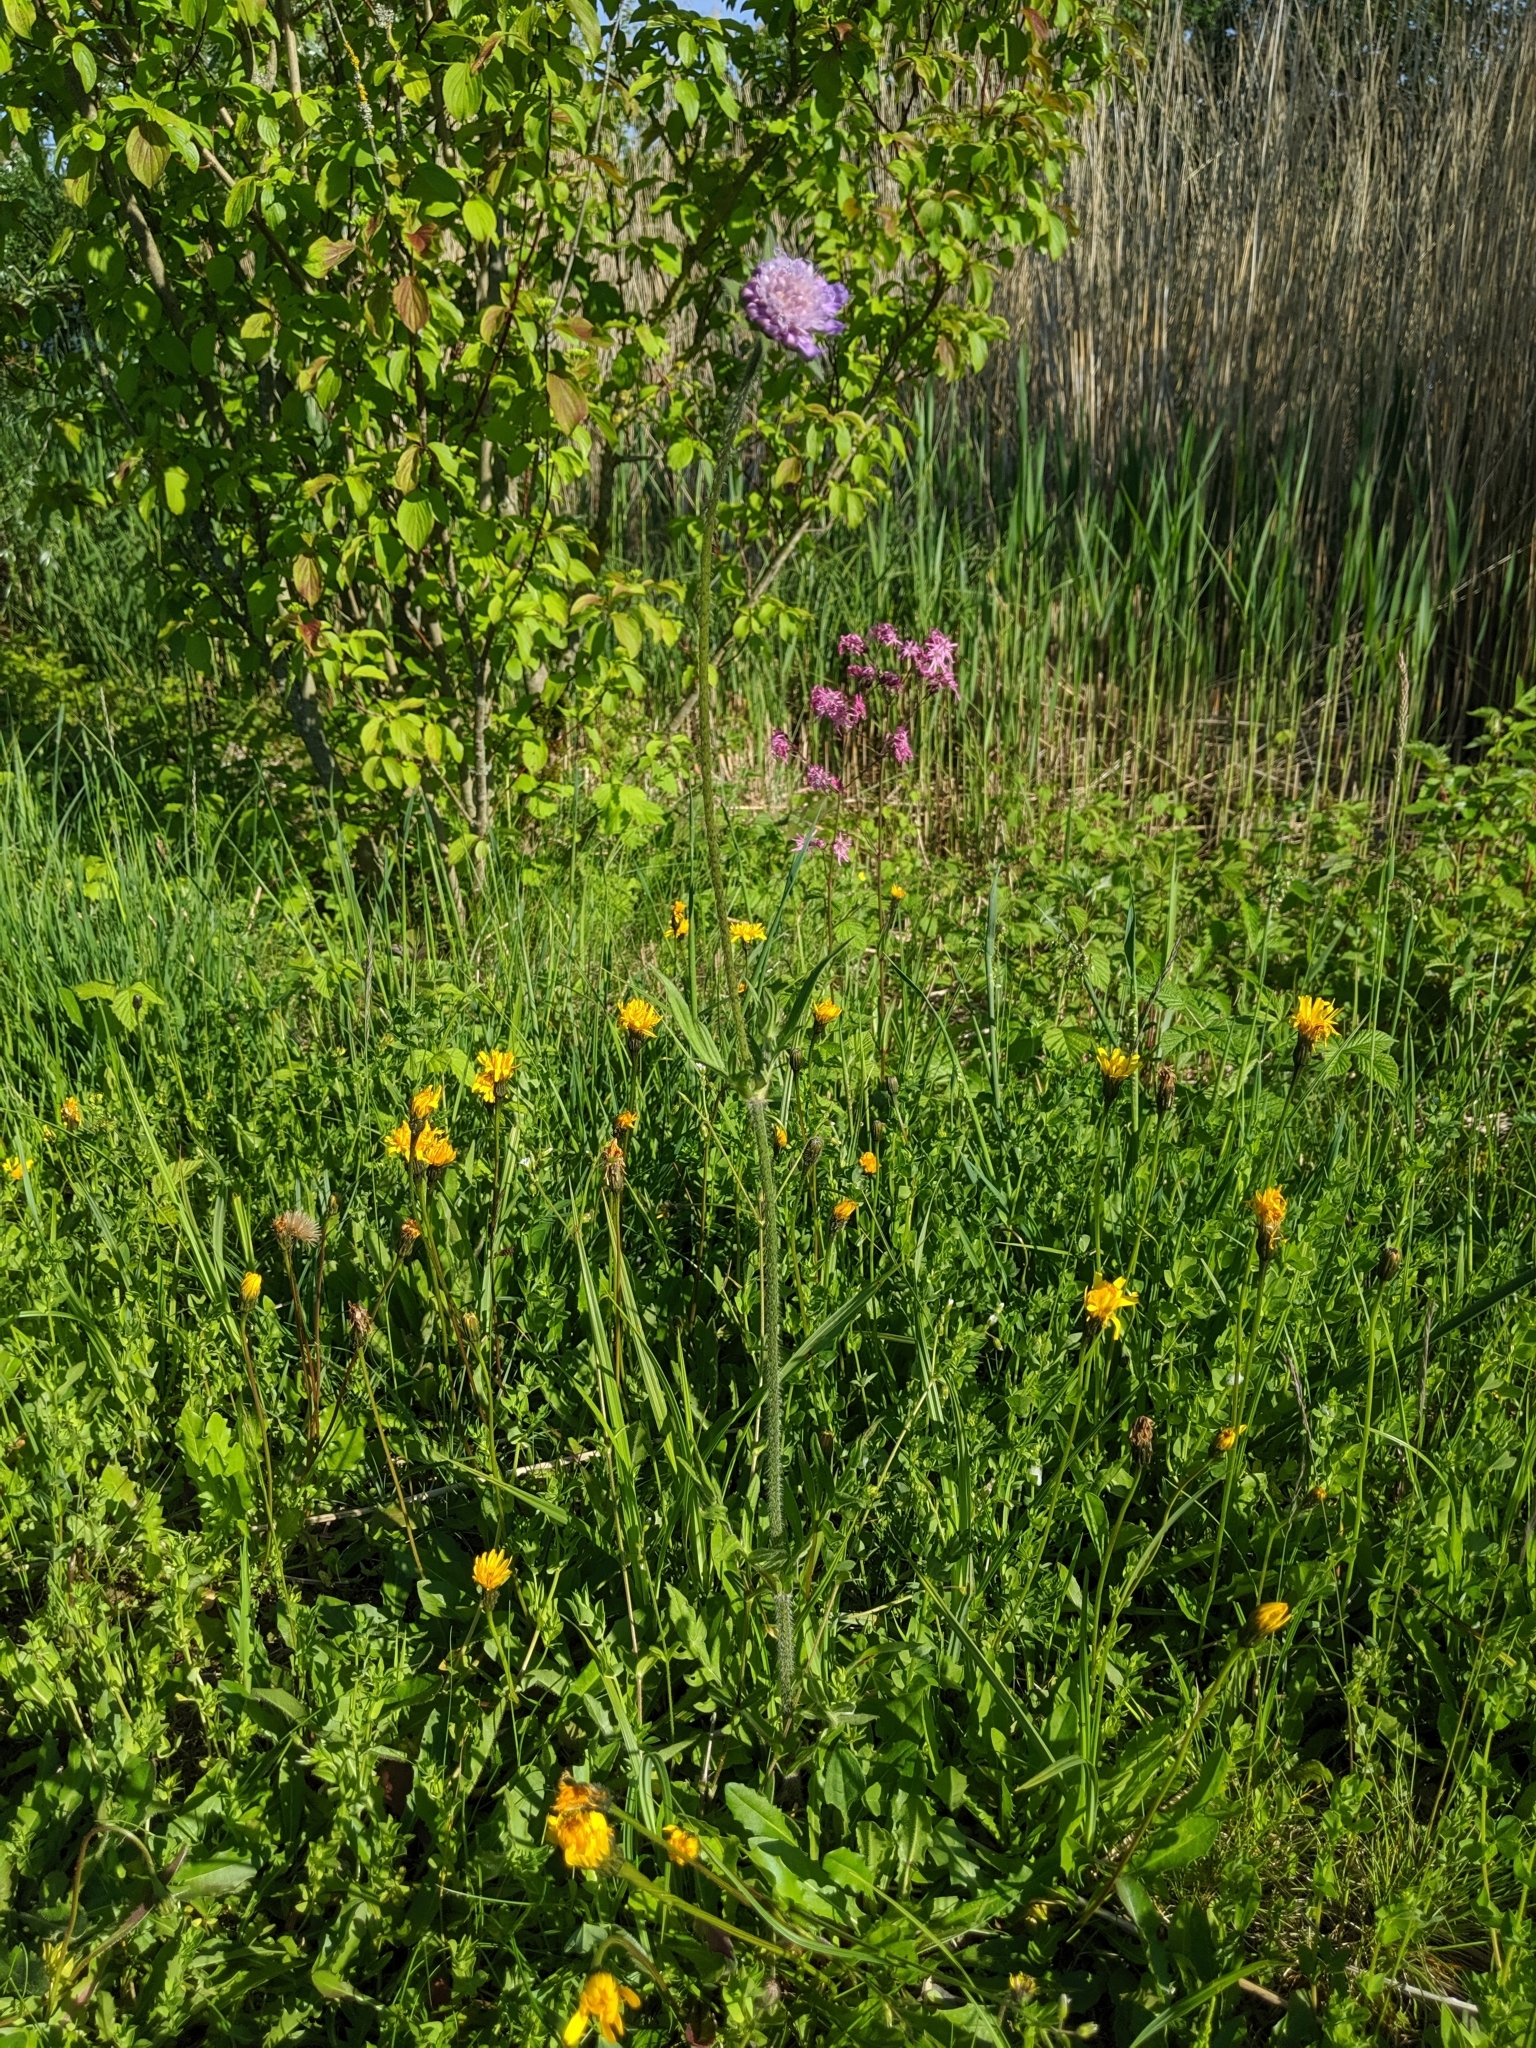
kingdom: Plantae
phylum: Tracheophyta
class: Magnoliopsida
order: Dipsacales
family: Caprifoliaceae
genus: Knautia
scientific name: Knautia arvensis
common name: Field scabiosa
